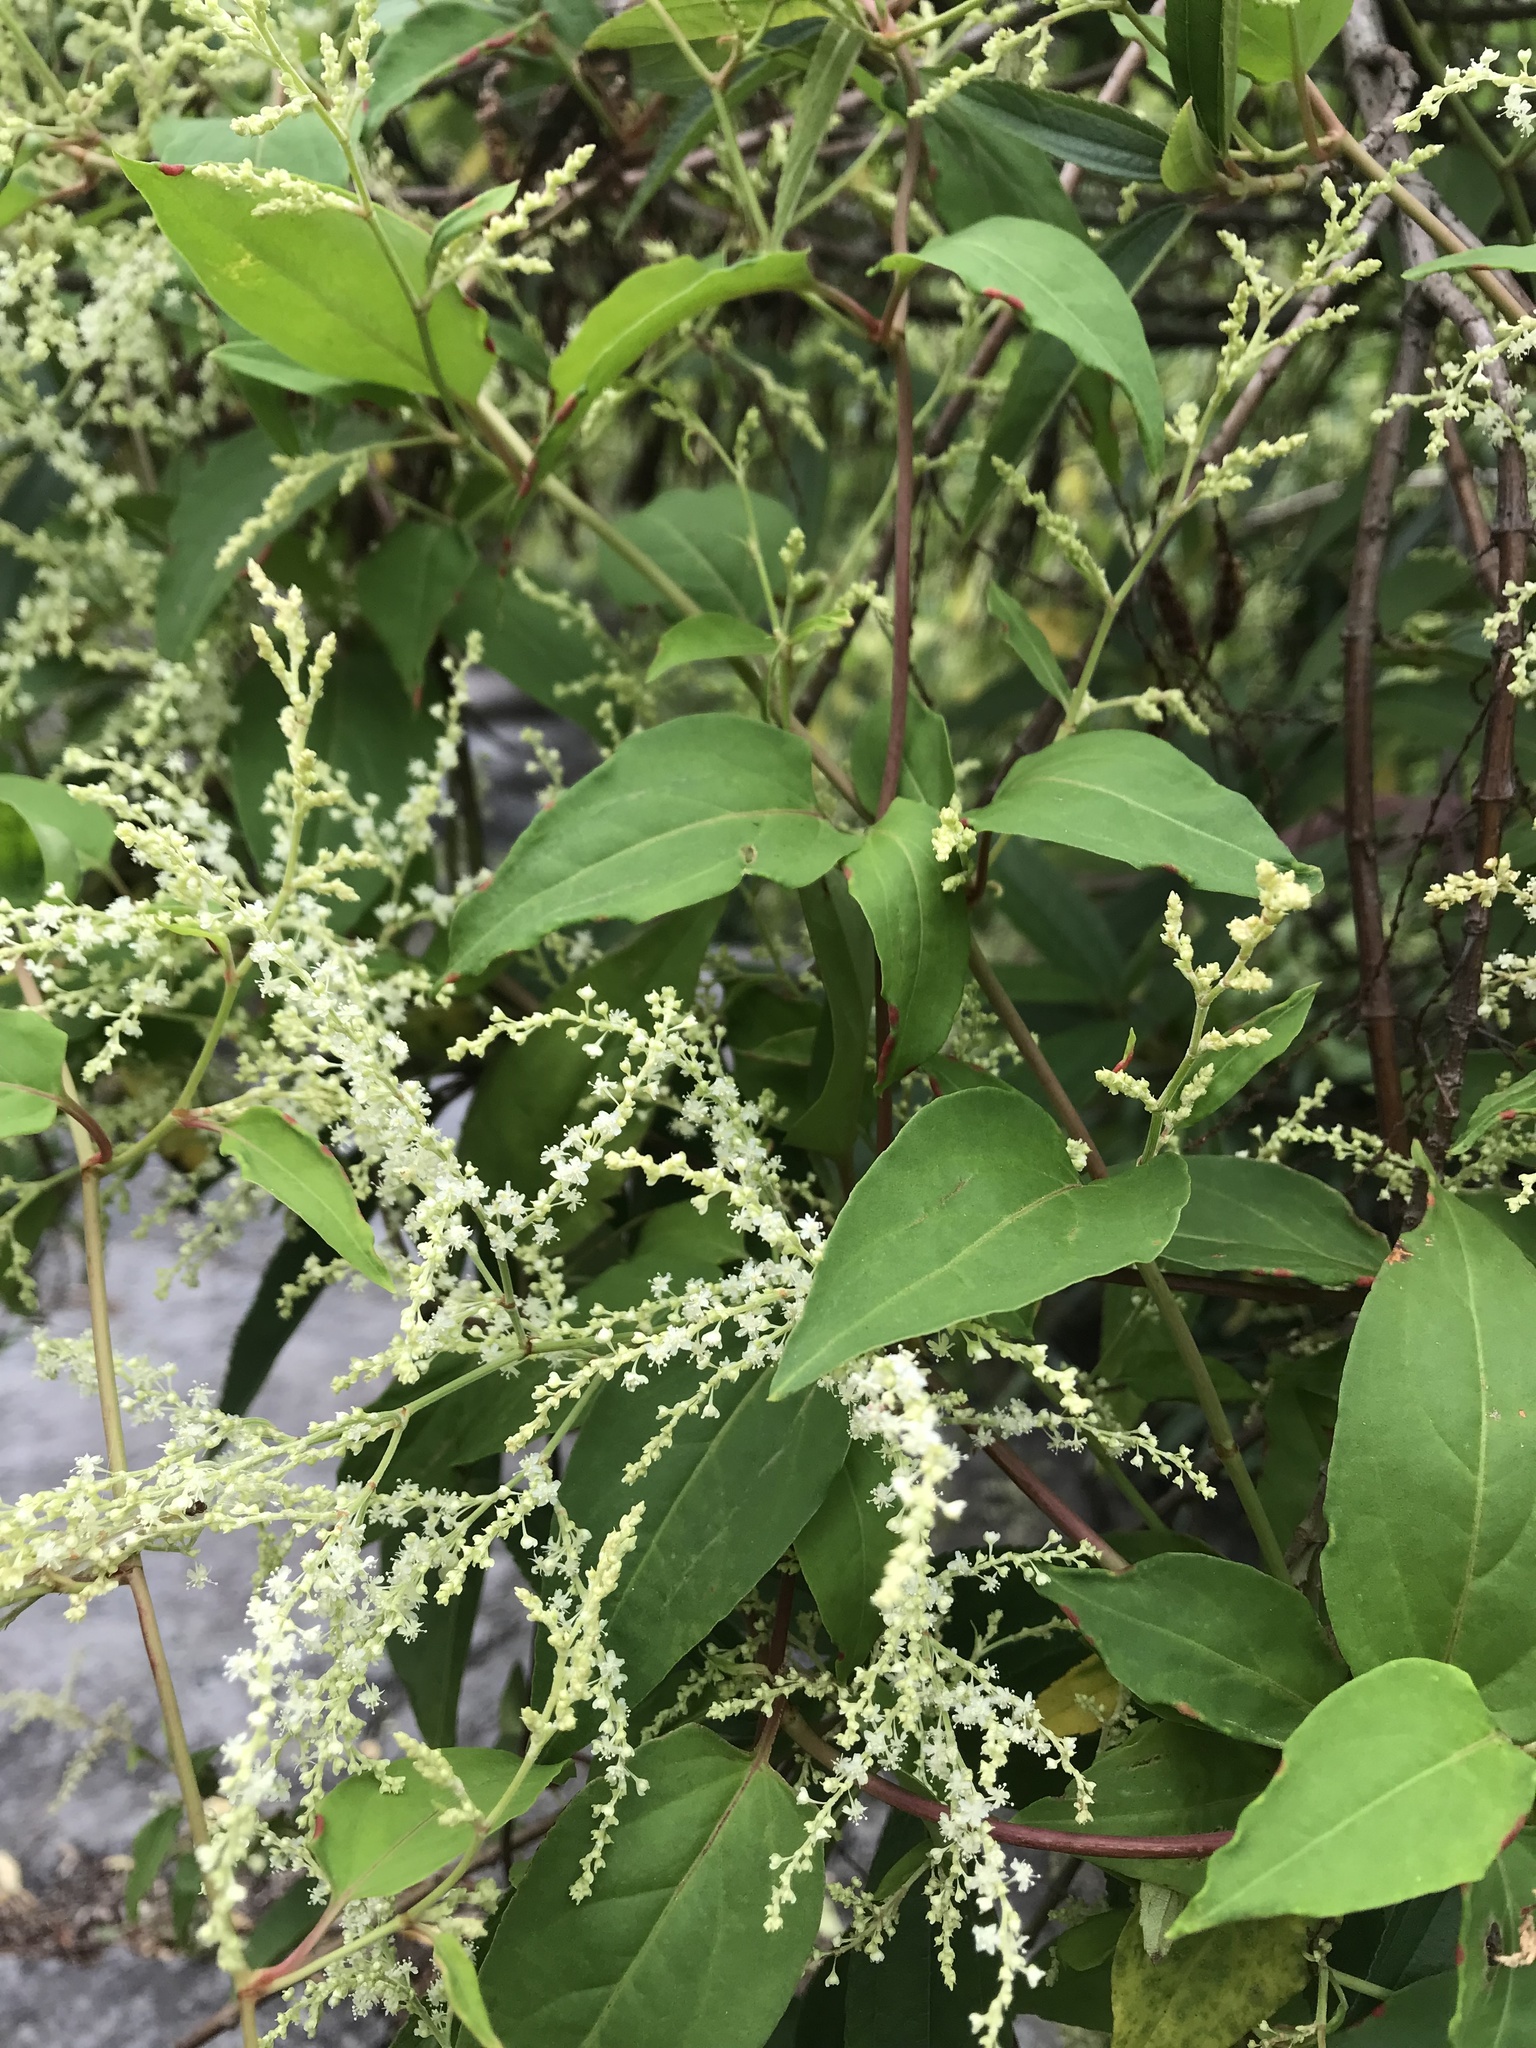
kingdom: Plantae
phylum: Tracheophyta
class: Magnoliopsida
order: Caryophyllales
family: Polygonaceae
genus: Reynoutria
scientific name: Reynoutria multiflora
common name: Chinese fleeceflower
